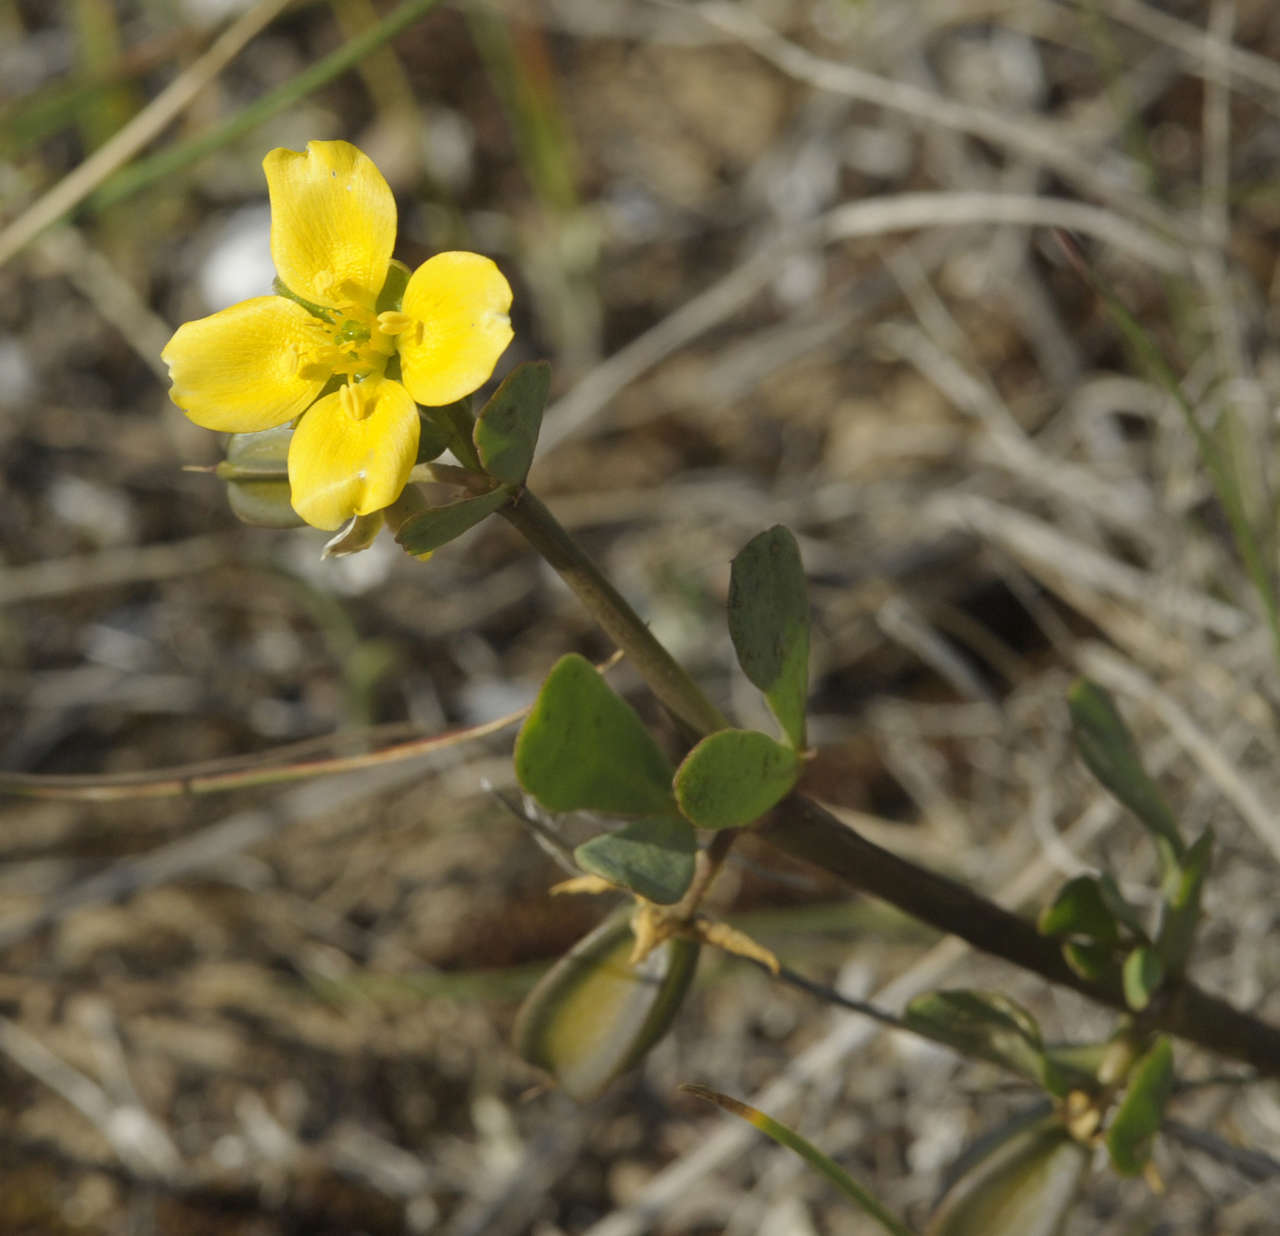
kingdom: Plantae
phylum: Tracheophyta
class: Magnoliopsida
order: Zygophyllales
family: Zygophyllaceae
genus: Roepera
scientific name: Roepera glauca
